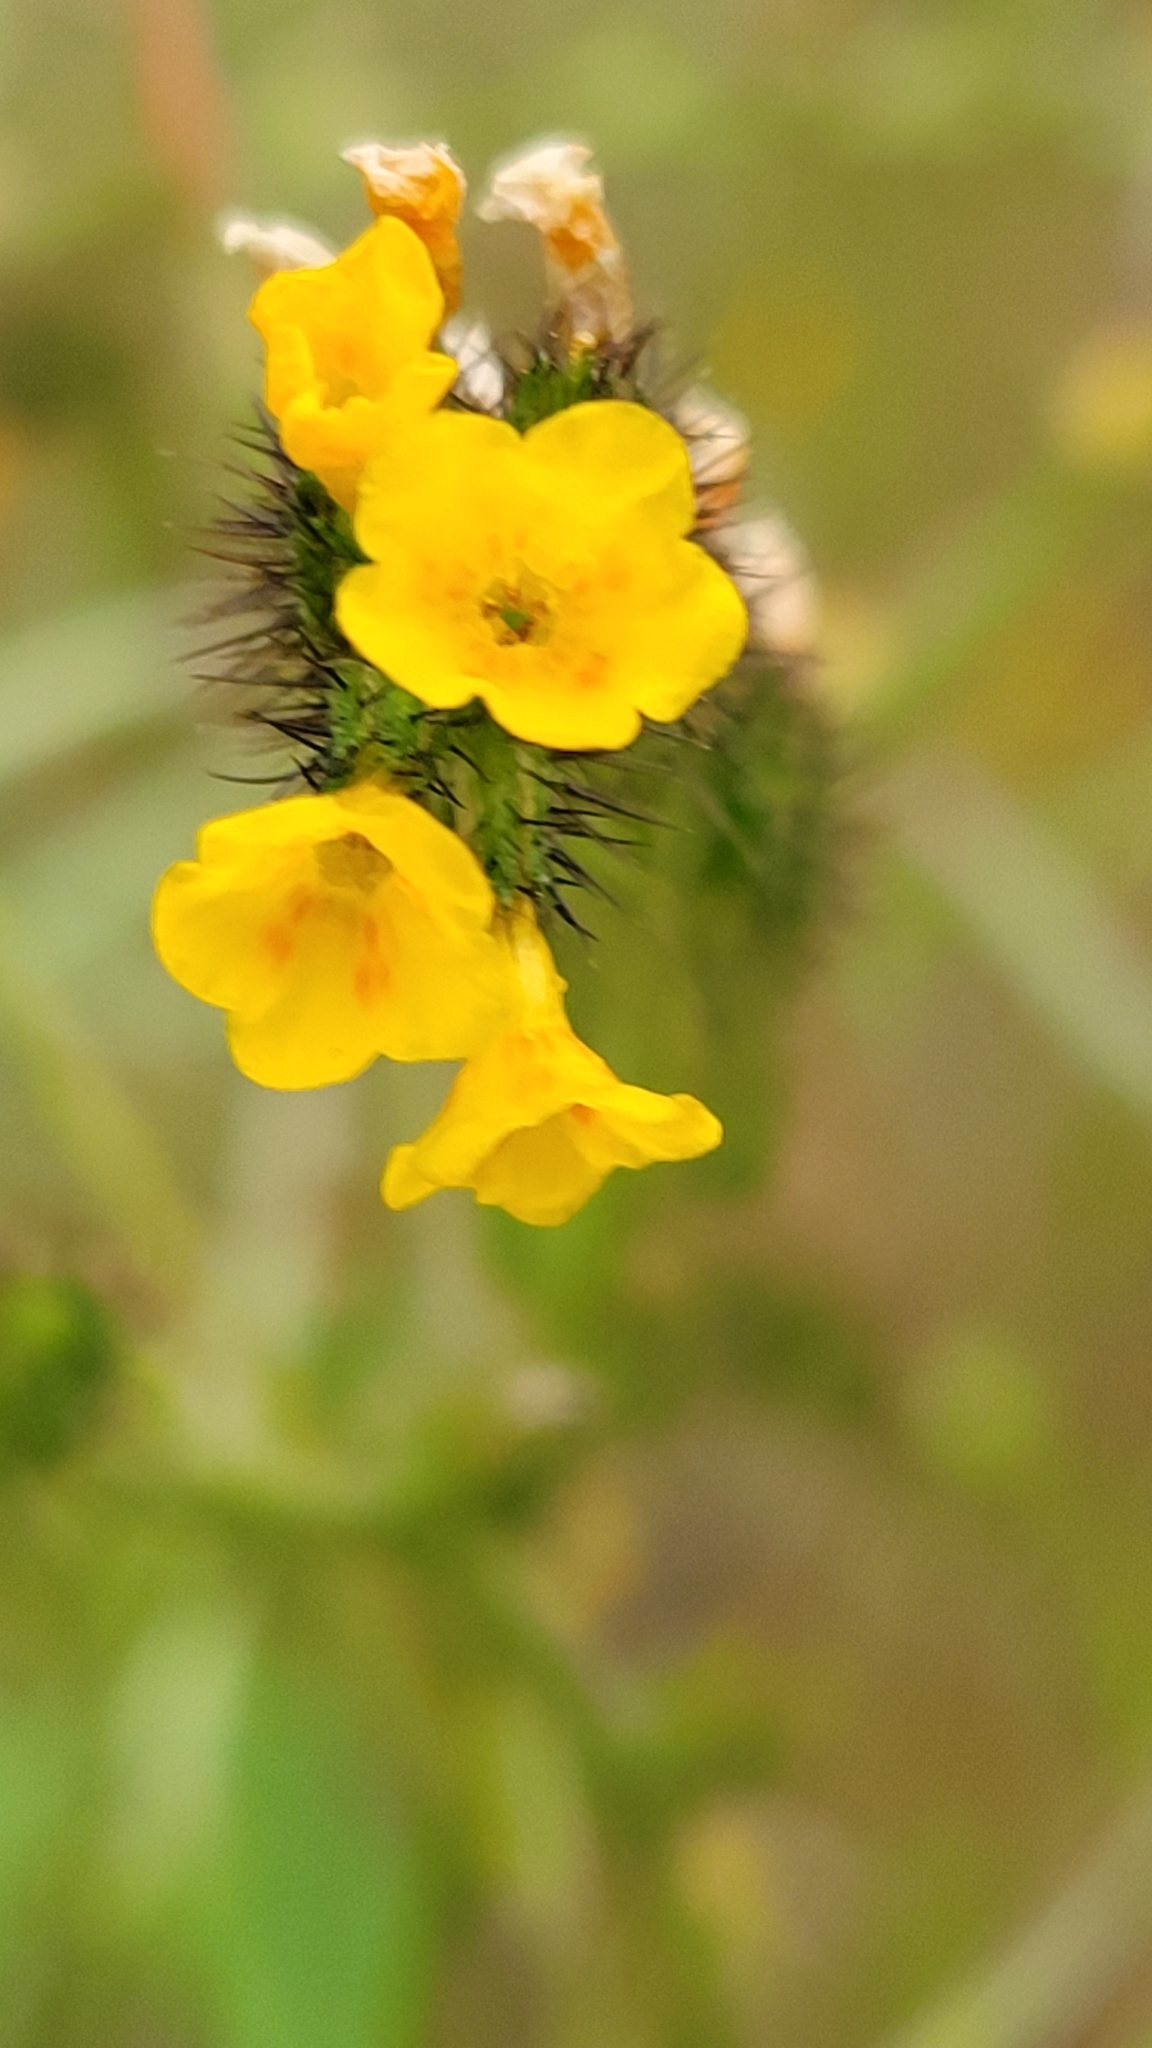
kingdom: Plantae
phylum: Tracheophyta
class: Magnoliopsida
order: Boraginales
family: Boraginaceae
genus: Amsinckia
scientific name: Amsinckia menziesii
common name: Menzies' fiddleneck
